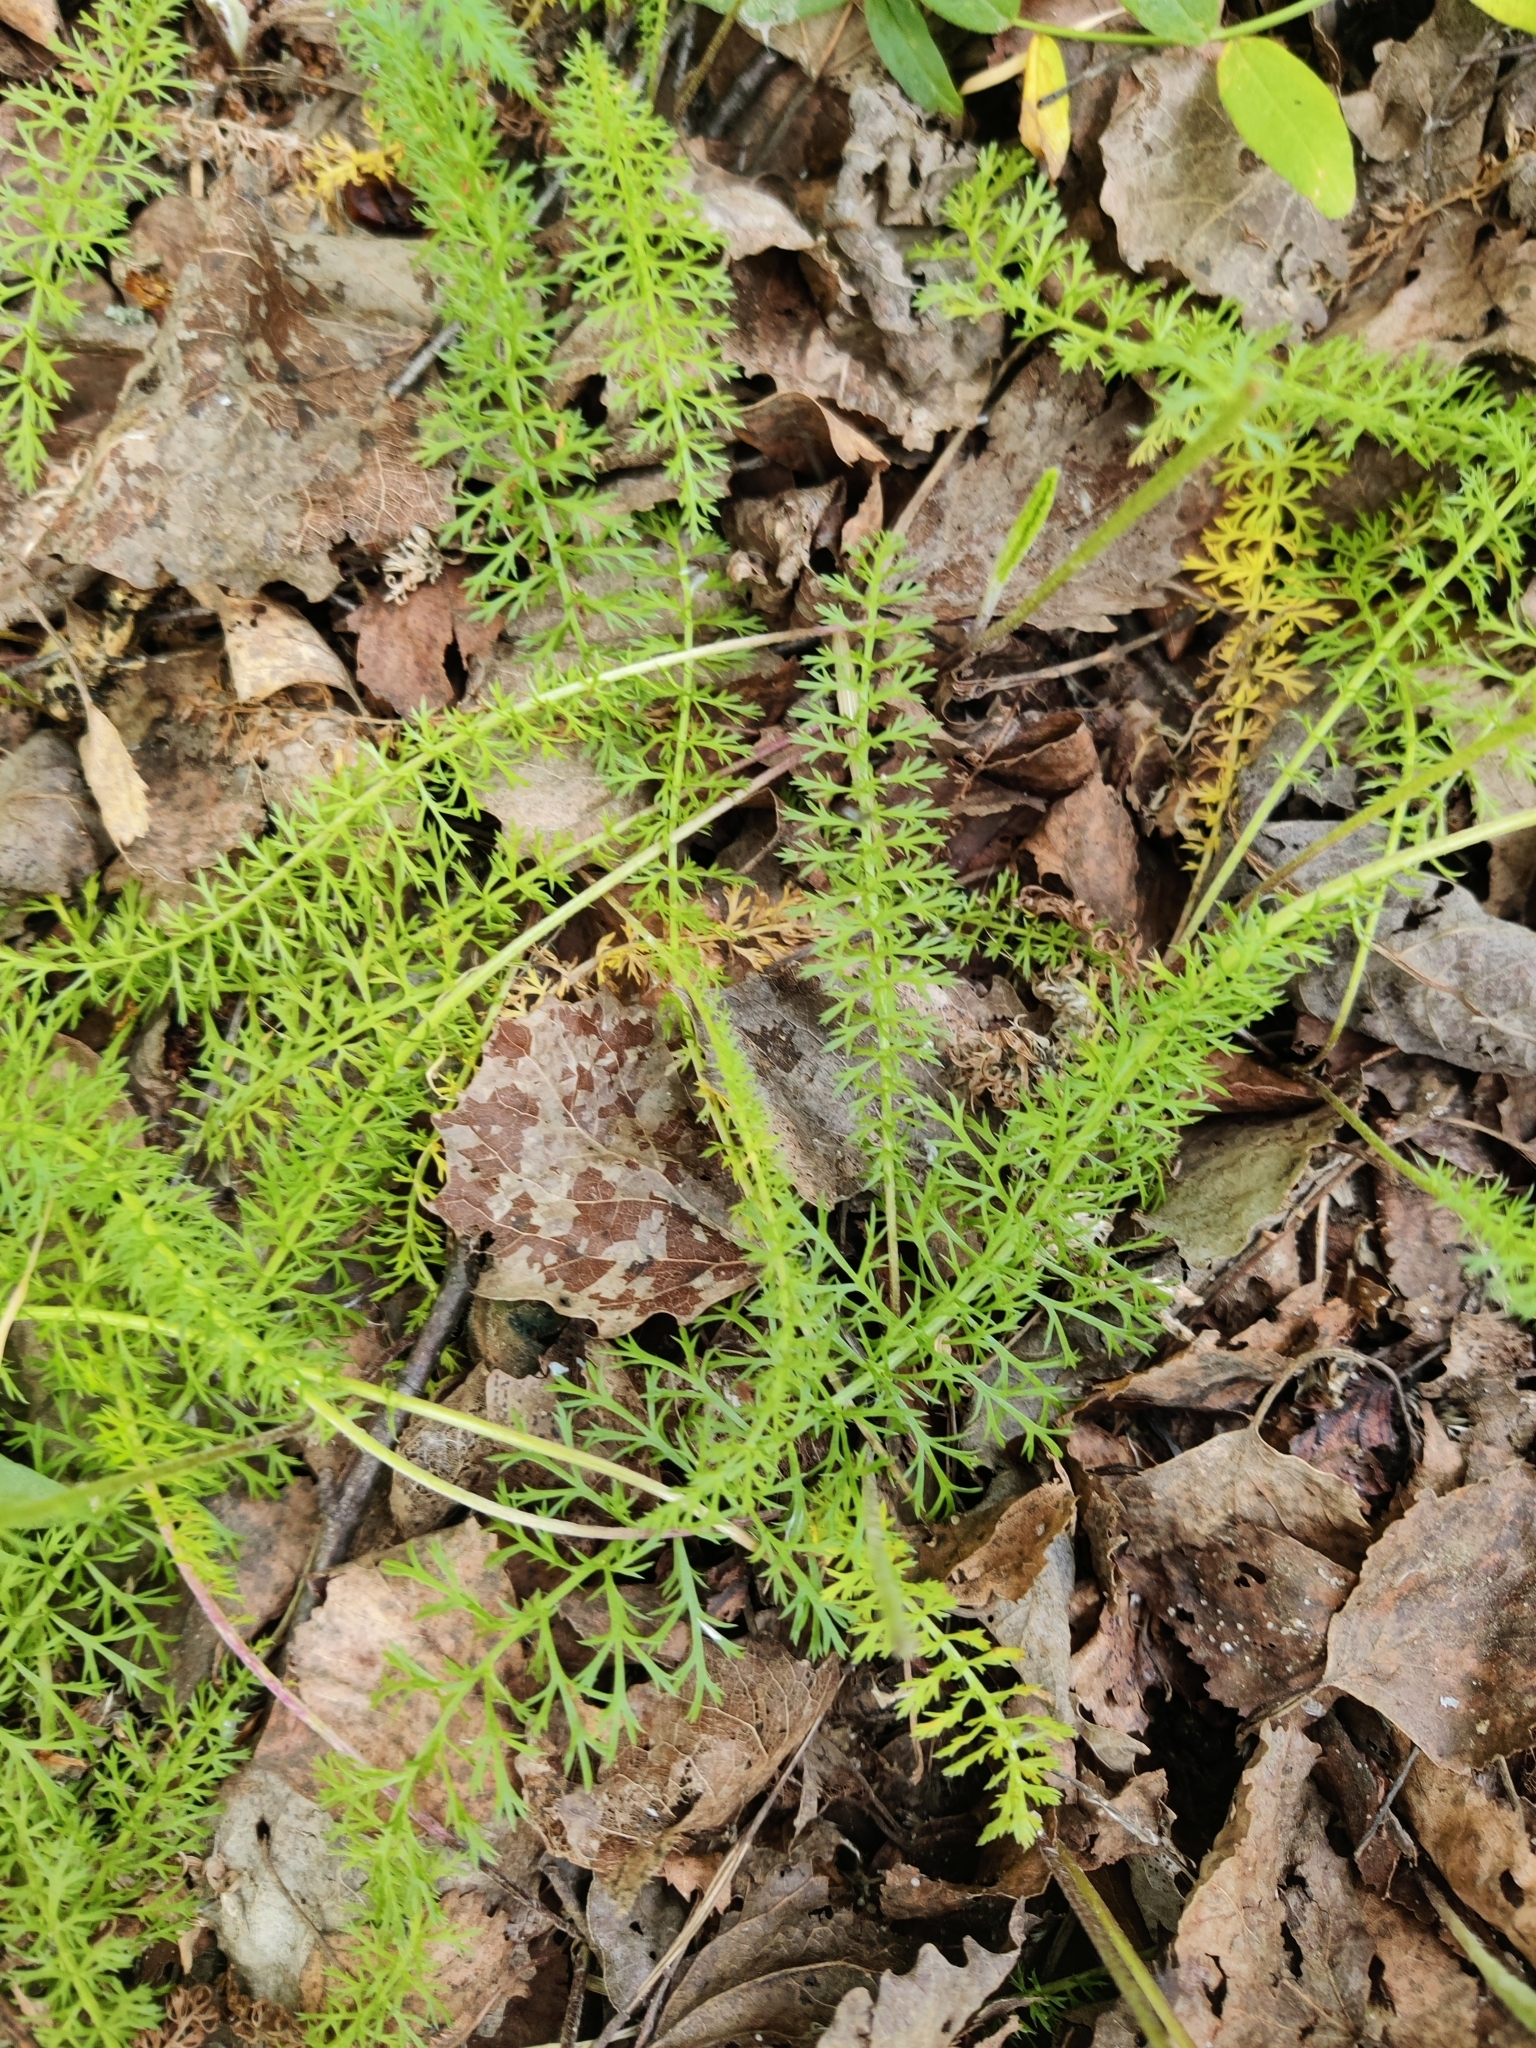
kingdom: Plantae
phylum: Tracheophyta
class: Magnoliopsida
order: Asterales
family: Asteraceae
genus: Achillea
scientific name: Achillea millefolium
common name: Yarrow
